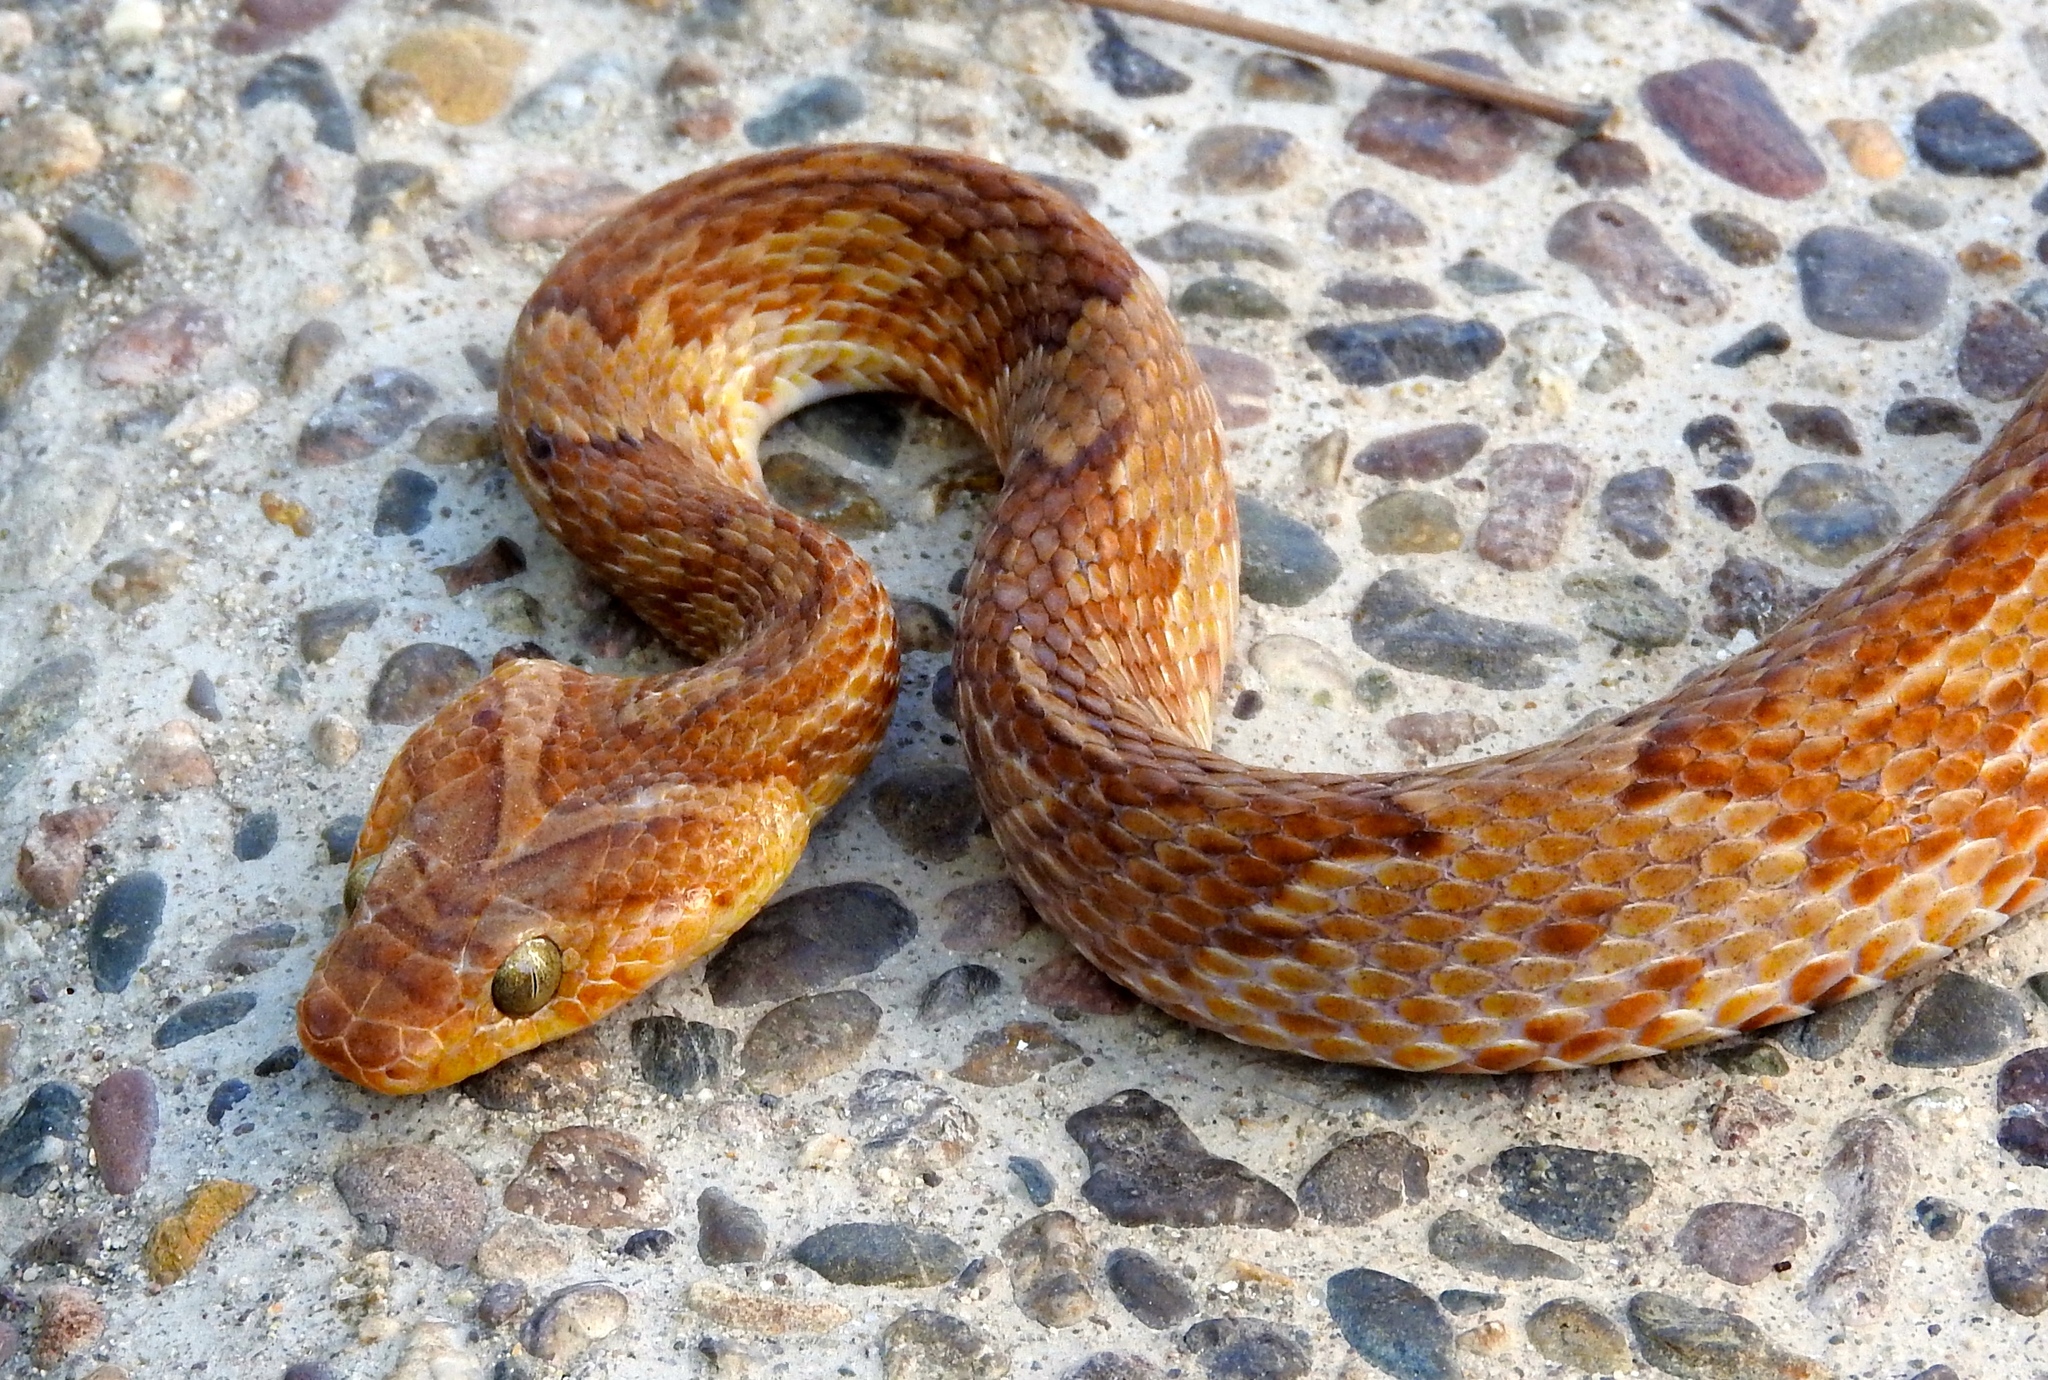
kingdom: Animalia
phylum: Chordata
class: Squamata
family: Colubridae
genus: Trimorphodon
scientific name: Trimorphodon paucimaculatus
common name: Sinaloan lyresnake
